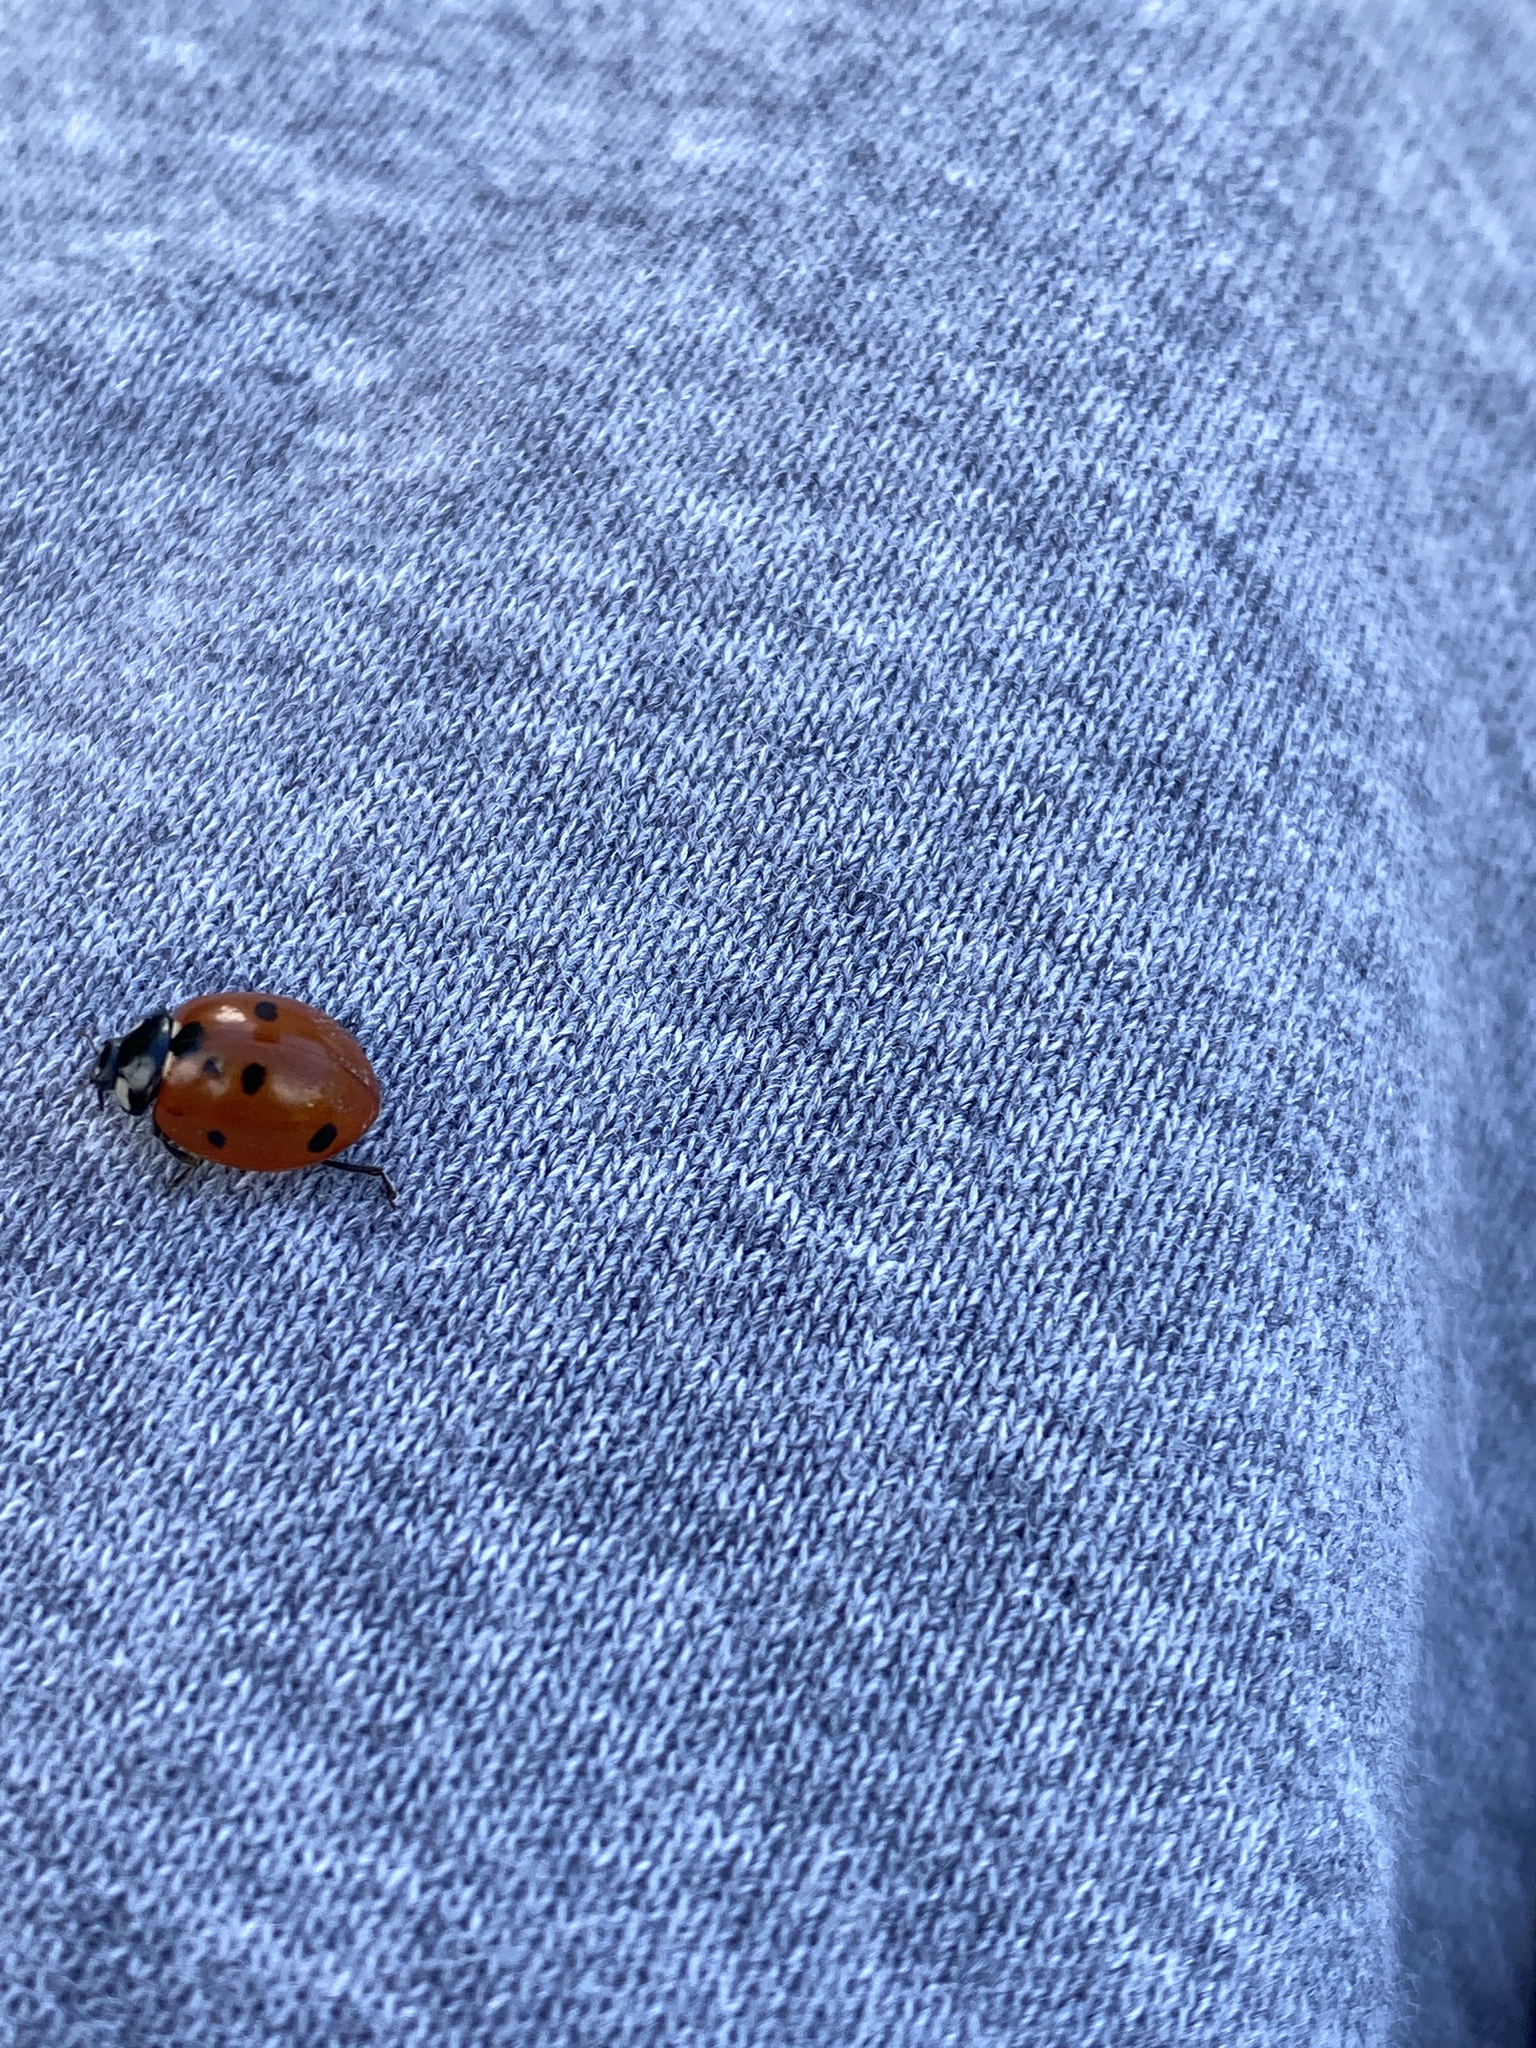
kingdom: Animalia
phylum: Arthropoda
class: Insecta
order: Coleoptera
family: Coccinellidae
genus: Coccinella
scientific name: Coccinella septempunctata
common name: Sevenspotted lady beetle
